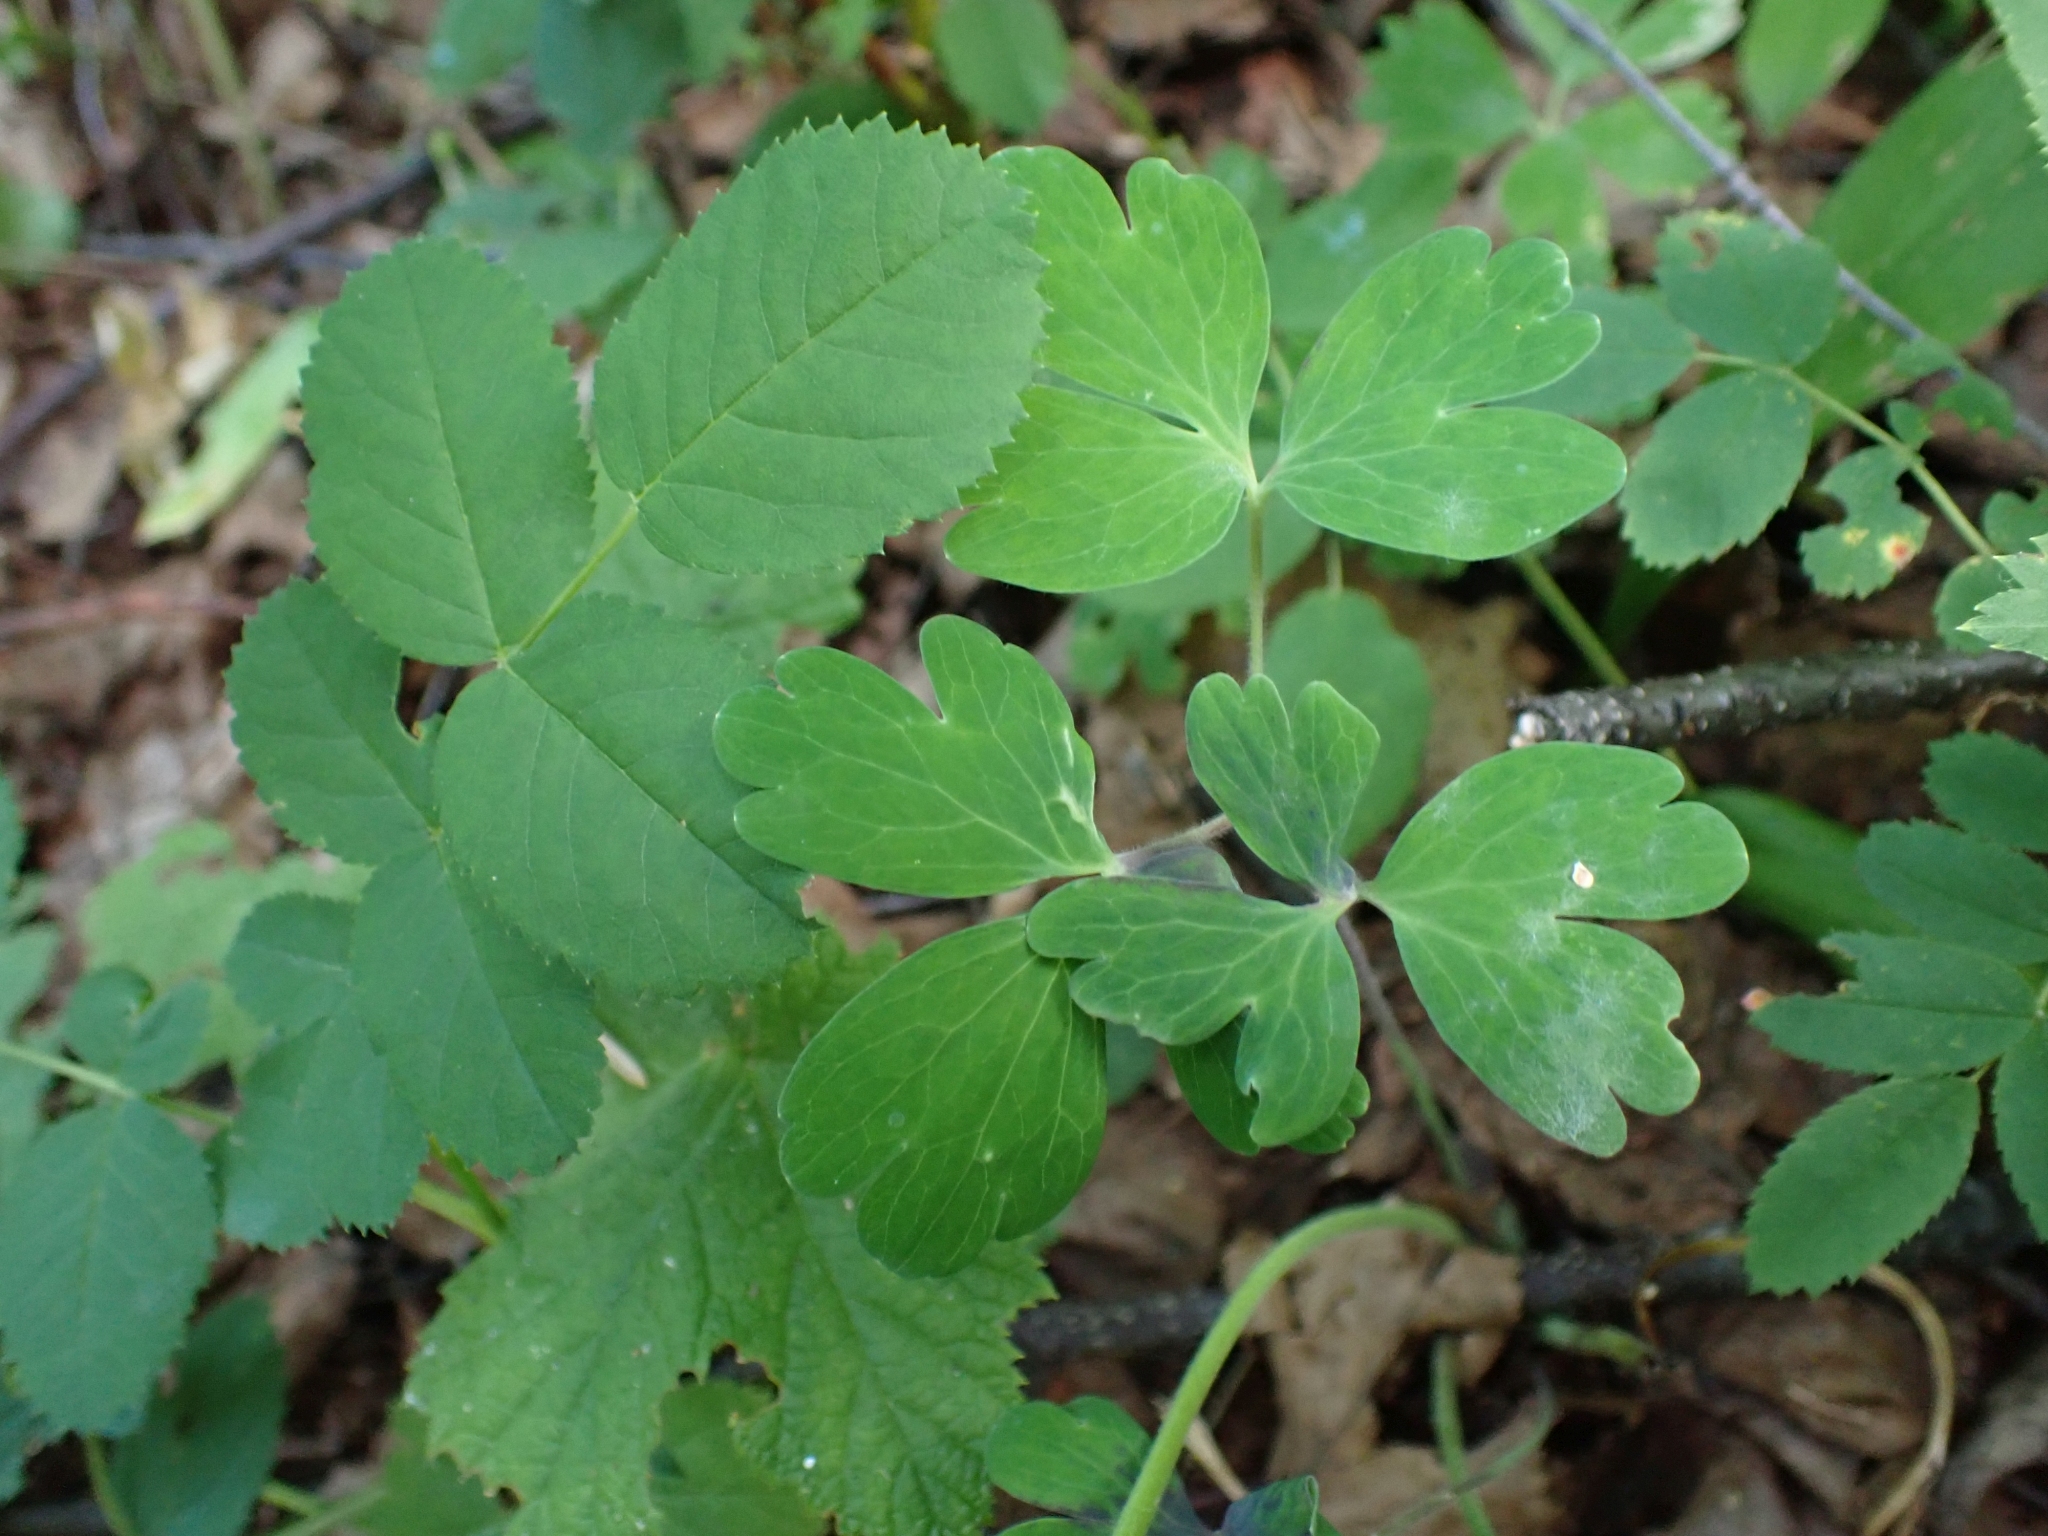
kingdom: Plantae
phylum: Tracheophyta
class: Magnoliopsida
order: Ranunculales
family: Ranunculaceae
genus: Aquilegia
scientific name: Aquilegia formosa
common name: Sitka columbine
